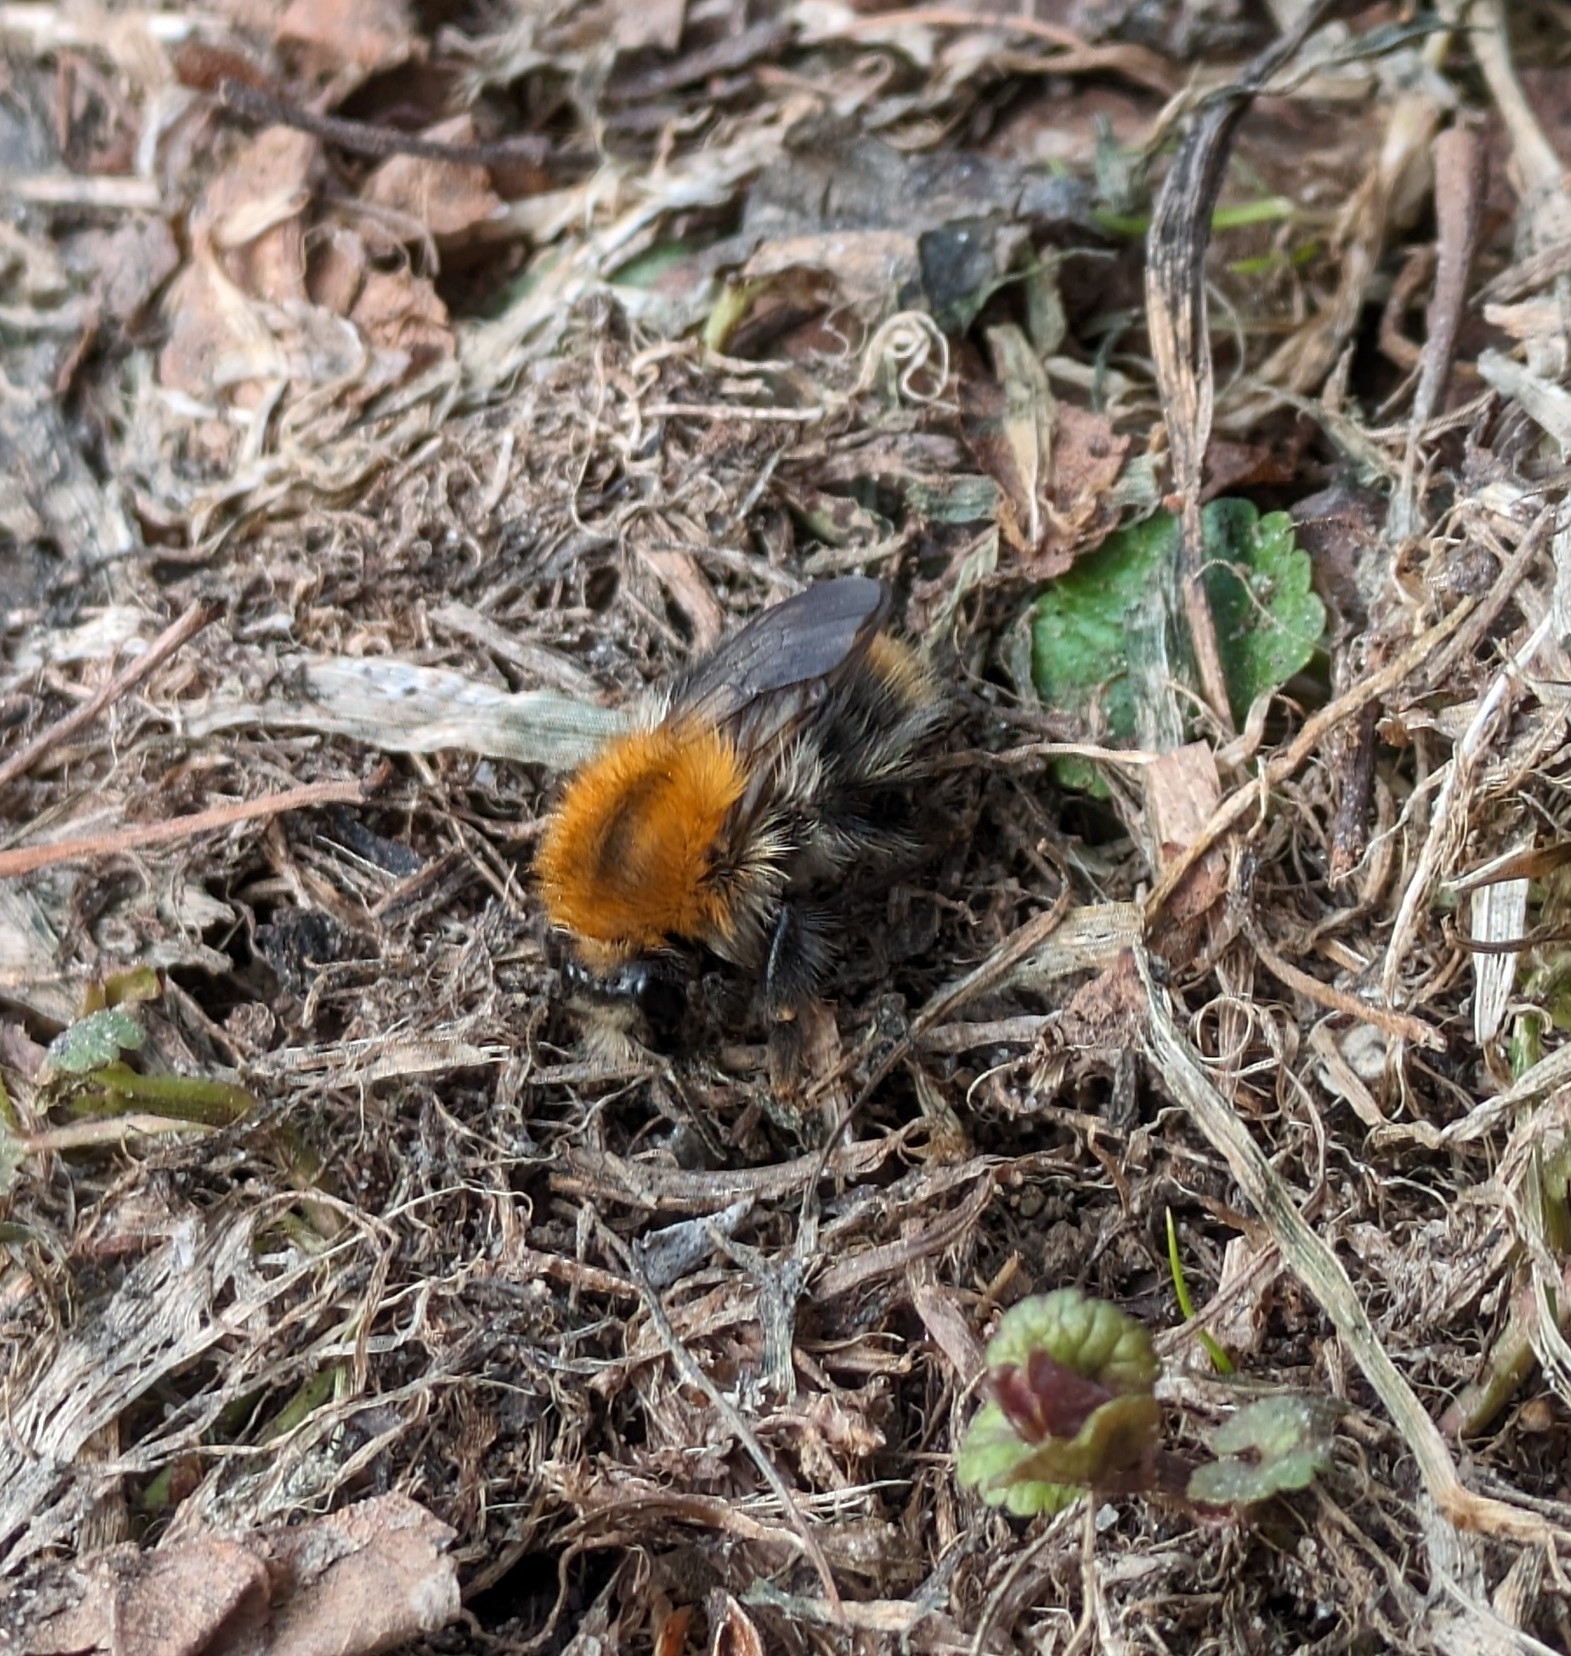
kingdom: Animalia
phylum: Arthropoda
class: Insecta
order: Hymenoptera
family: Apidae
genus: Bombus
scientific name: Bombus pascuorum
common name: Common carder bee
